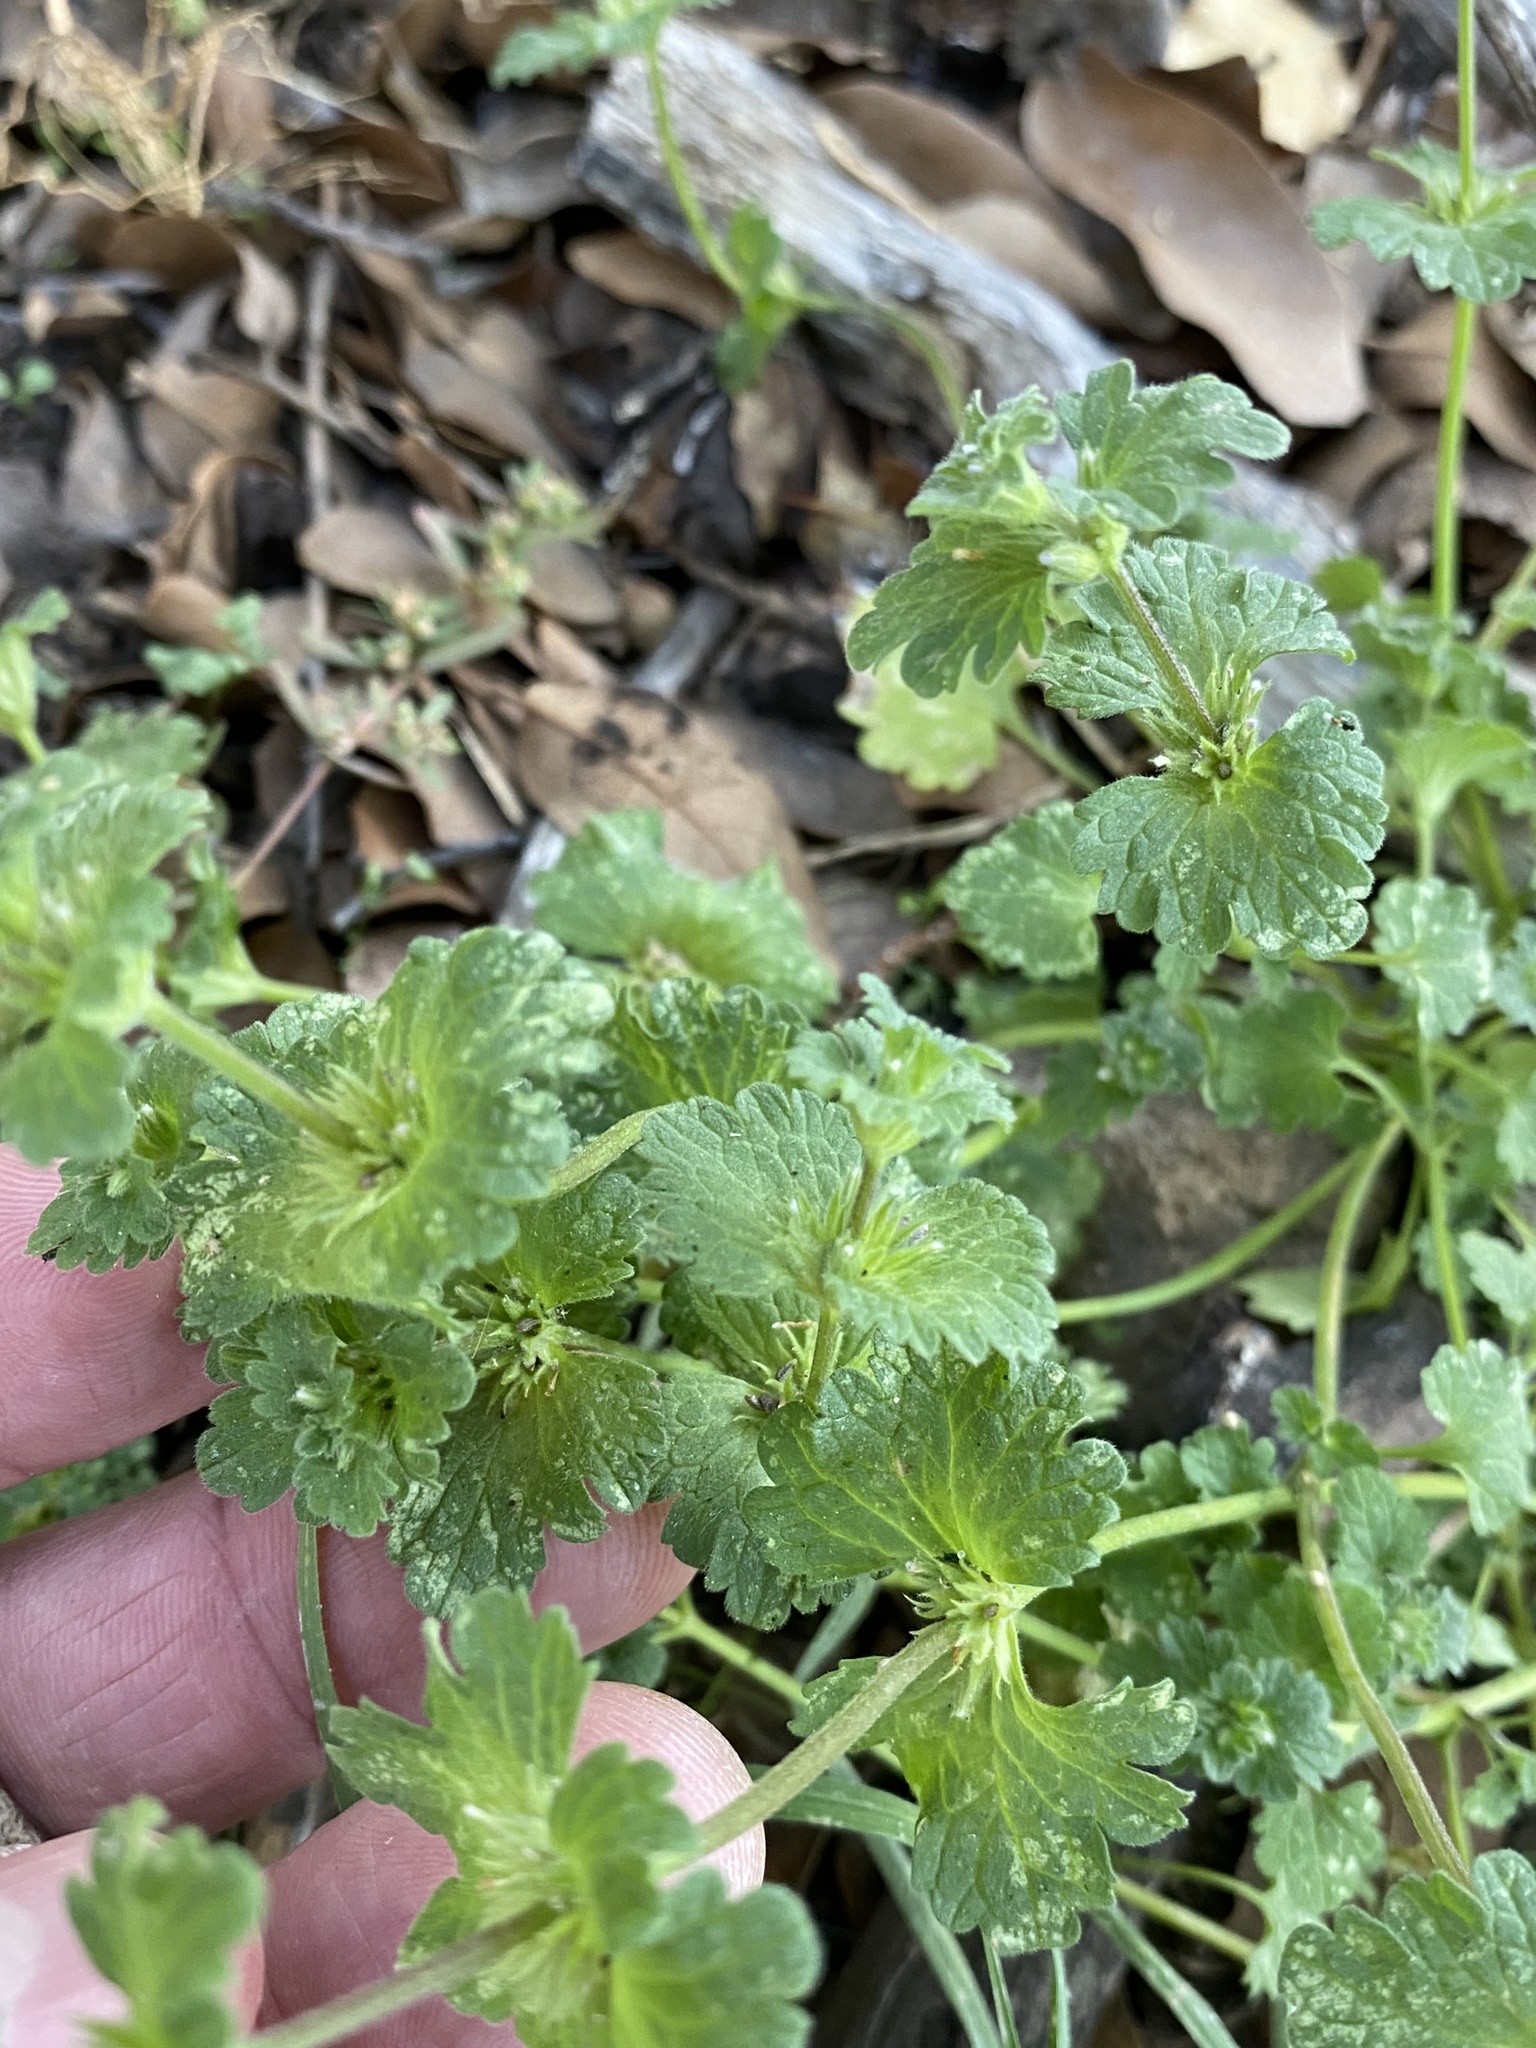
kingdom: Plantae
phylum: Tracheophyta
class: Magnoliopsida
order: Lamiales
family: Lamiaceae
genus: Lamium
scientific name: Lamium amplexicaule
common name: Henbit dead-nettle
